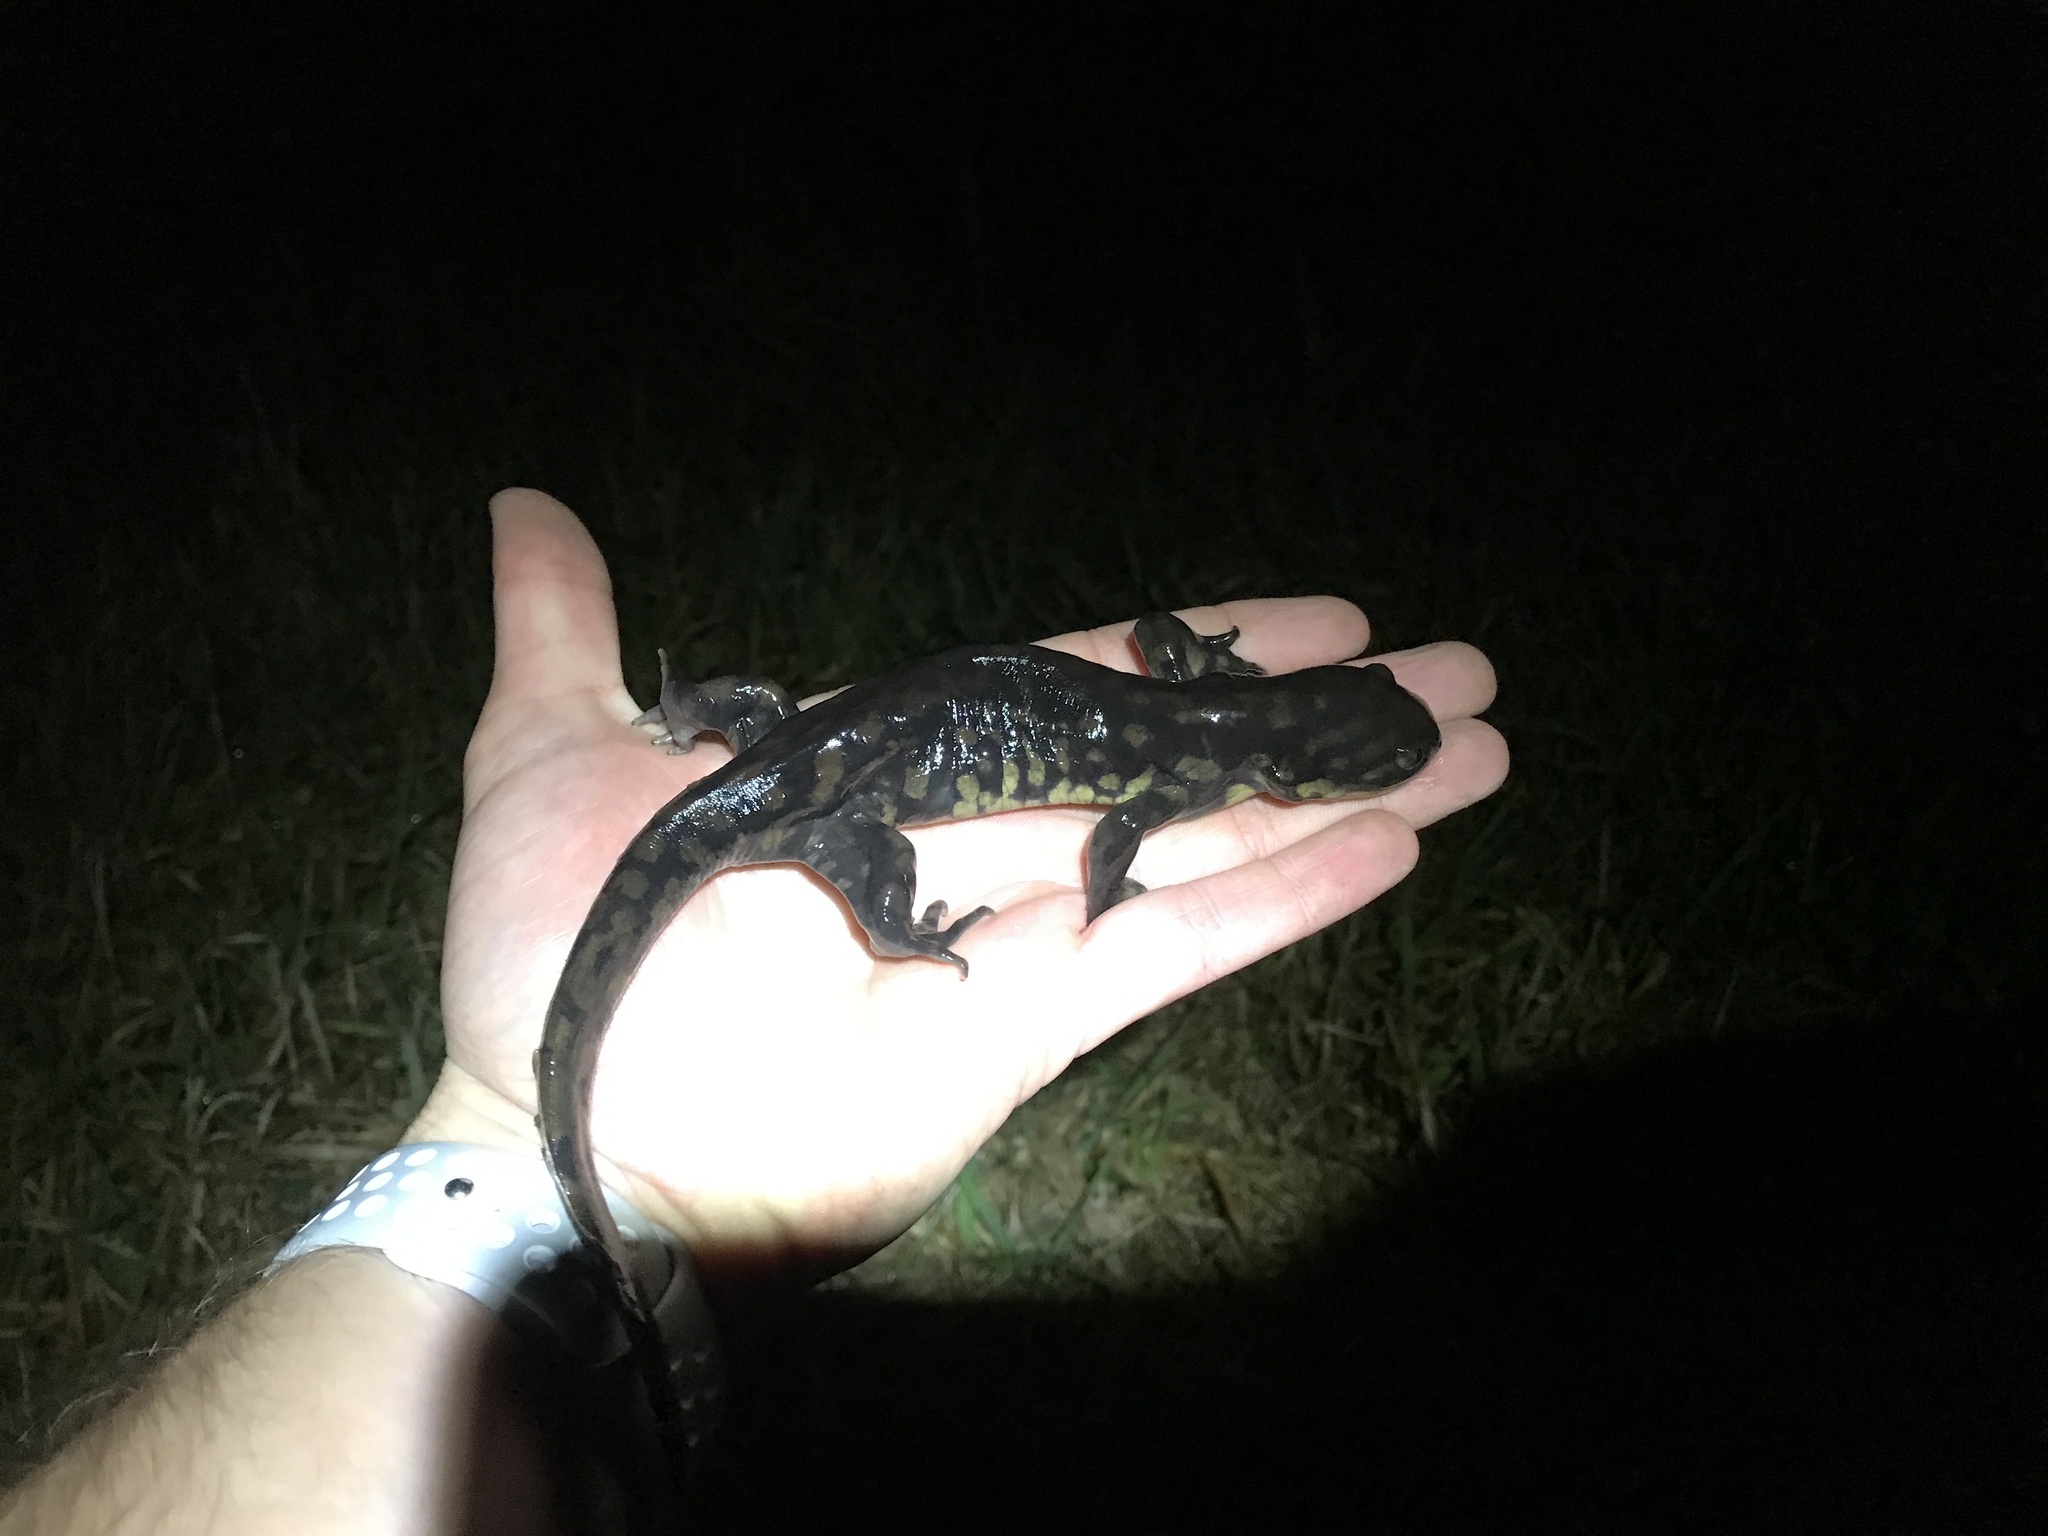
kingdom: Animalia
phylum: Chordata
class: Amphibia
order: Caudata
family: Ambystomatidae
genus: Ambystoma
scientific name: Ambystoma tigrinum
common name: Tiger salamander
